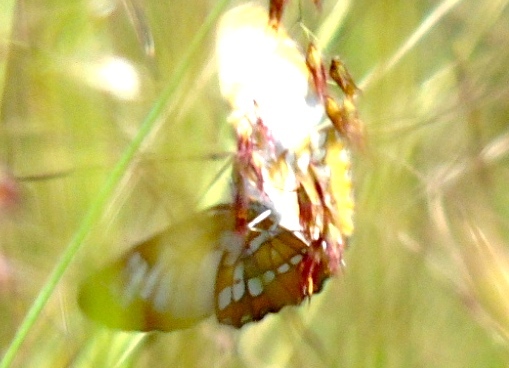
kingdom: Animalia
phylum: Arthropoda
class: Insecta
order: Lepidoptera
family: Nymphalidae
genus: Mestra
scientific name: Mestra amymone
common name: Common mestra
